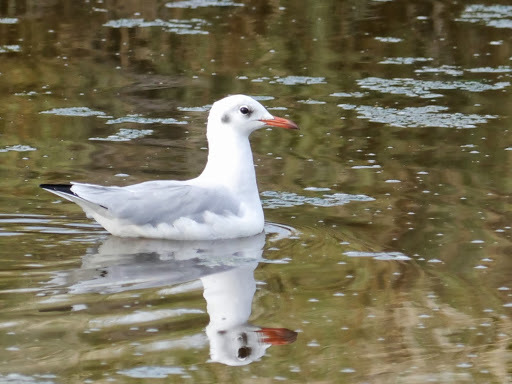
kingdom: Animalia
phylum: Chordata
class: Aves
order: Charadriiformes
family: Laridae
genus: Chroicocephalus
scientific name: Chroicocephalus ridibundus
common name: Black-headed gull
